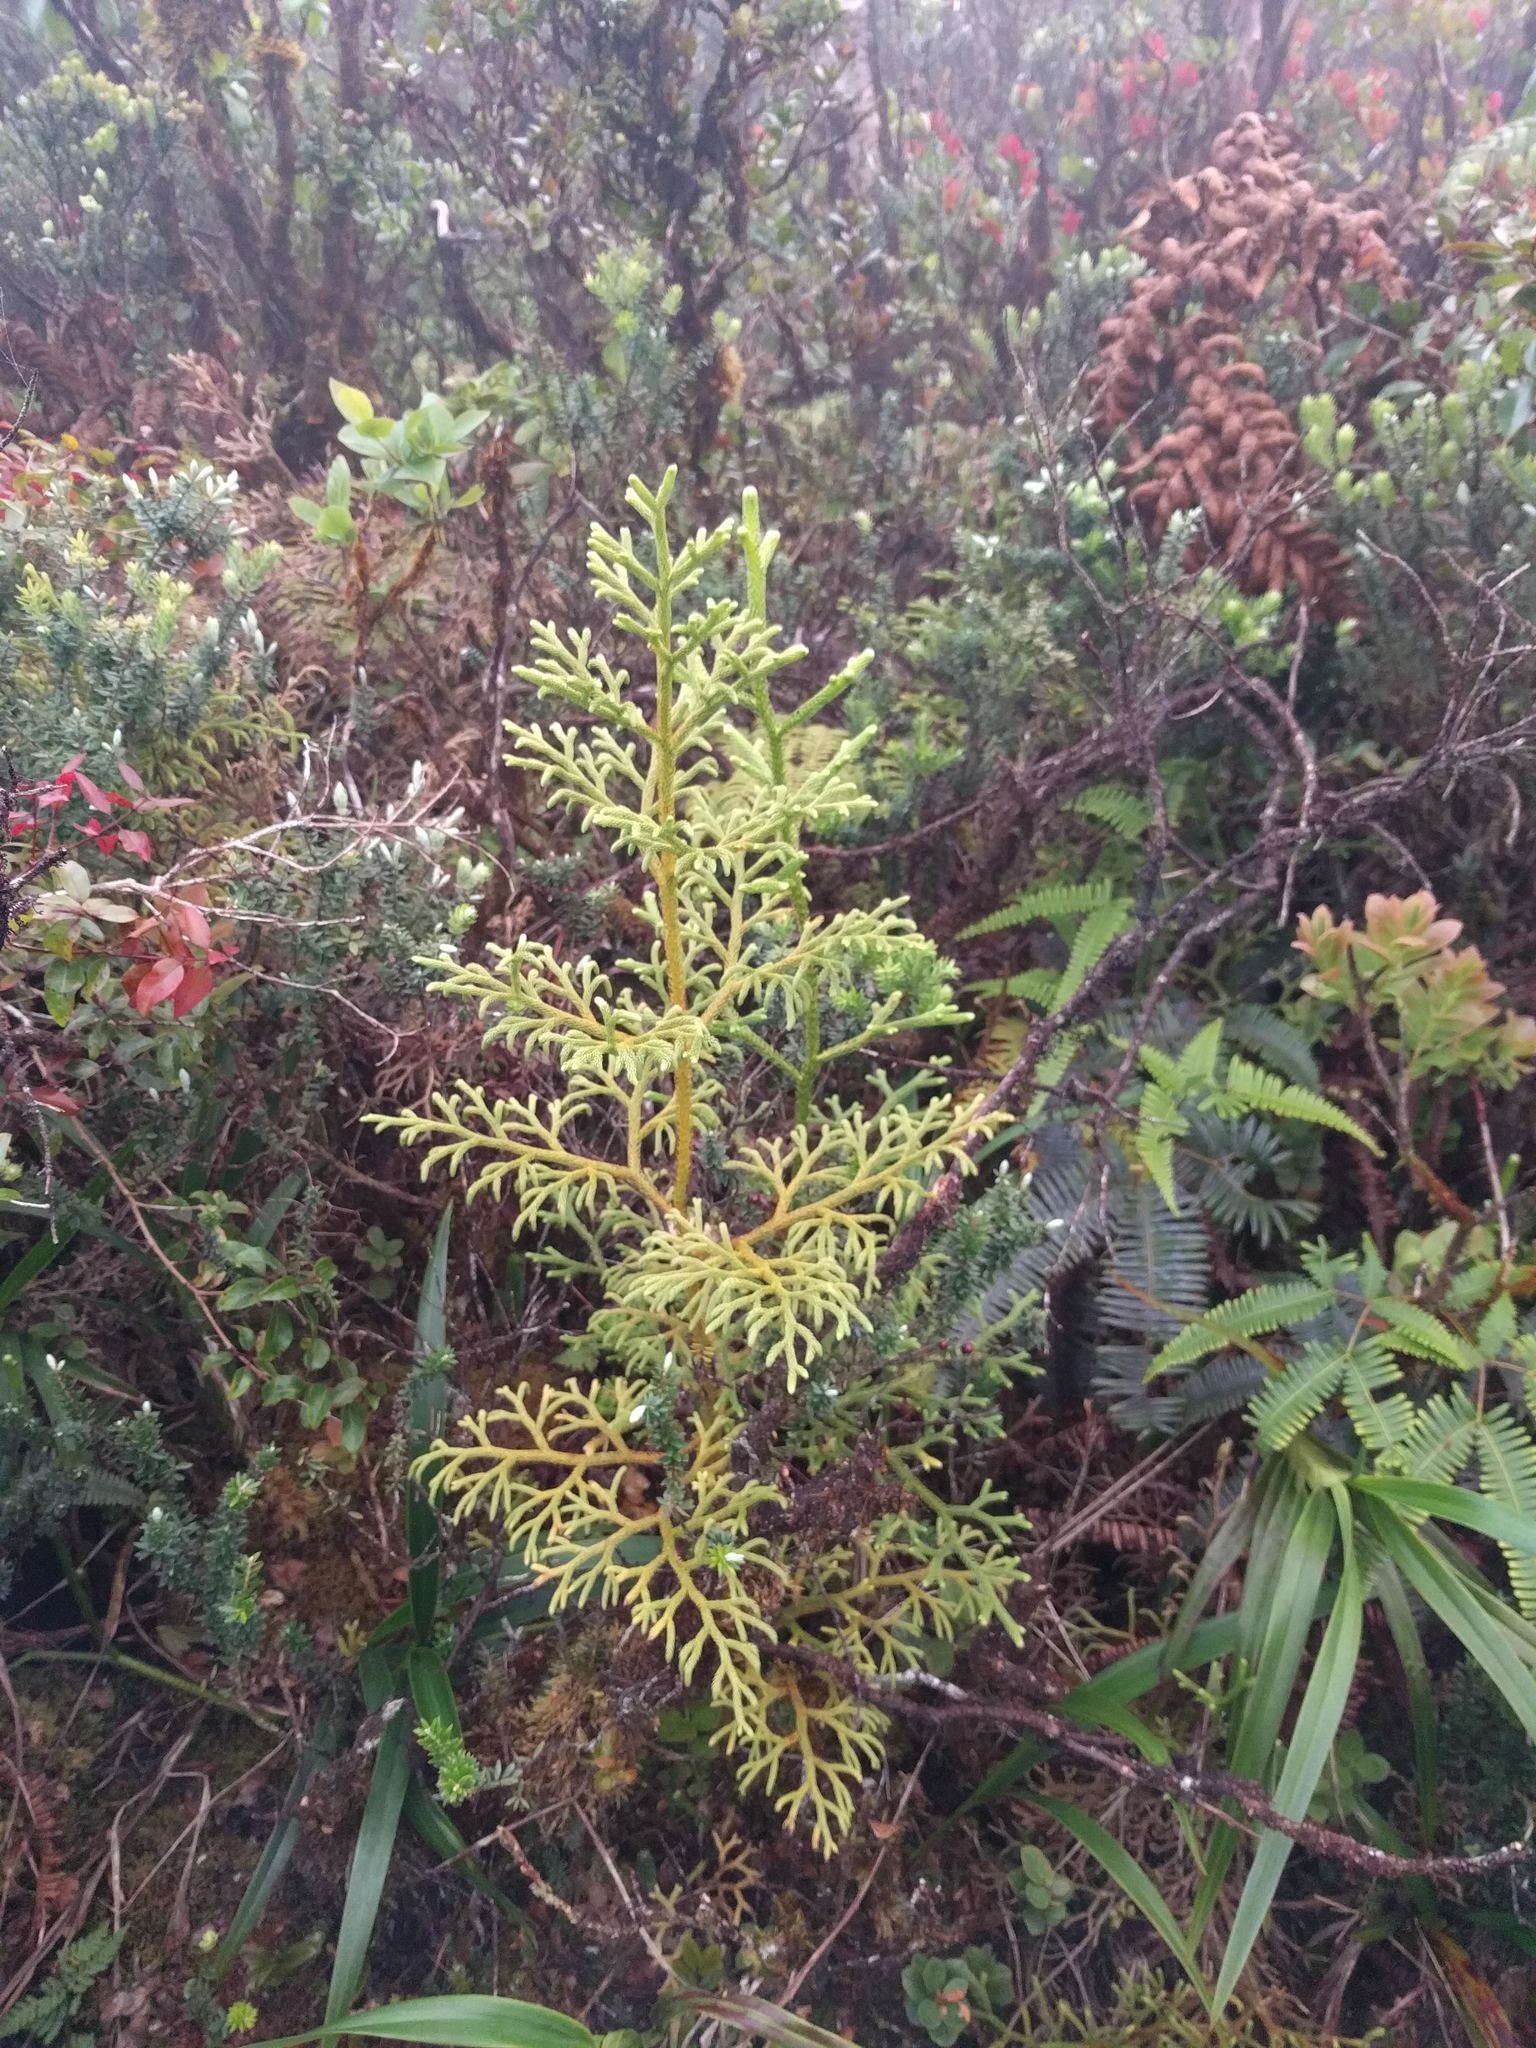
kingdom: Plantae
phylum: Tracheophyta
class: Lycopodiopsida
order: Lycopodiales
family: Lycopodiaceae
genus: Palhinhaea
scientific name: Palhinhaea cernua
